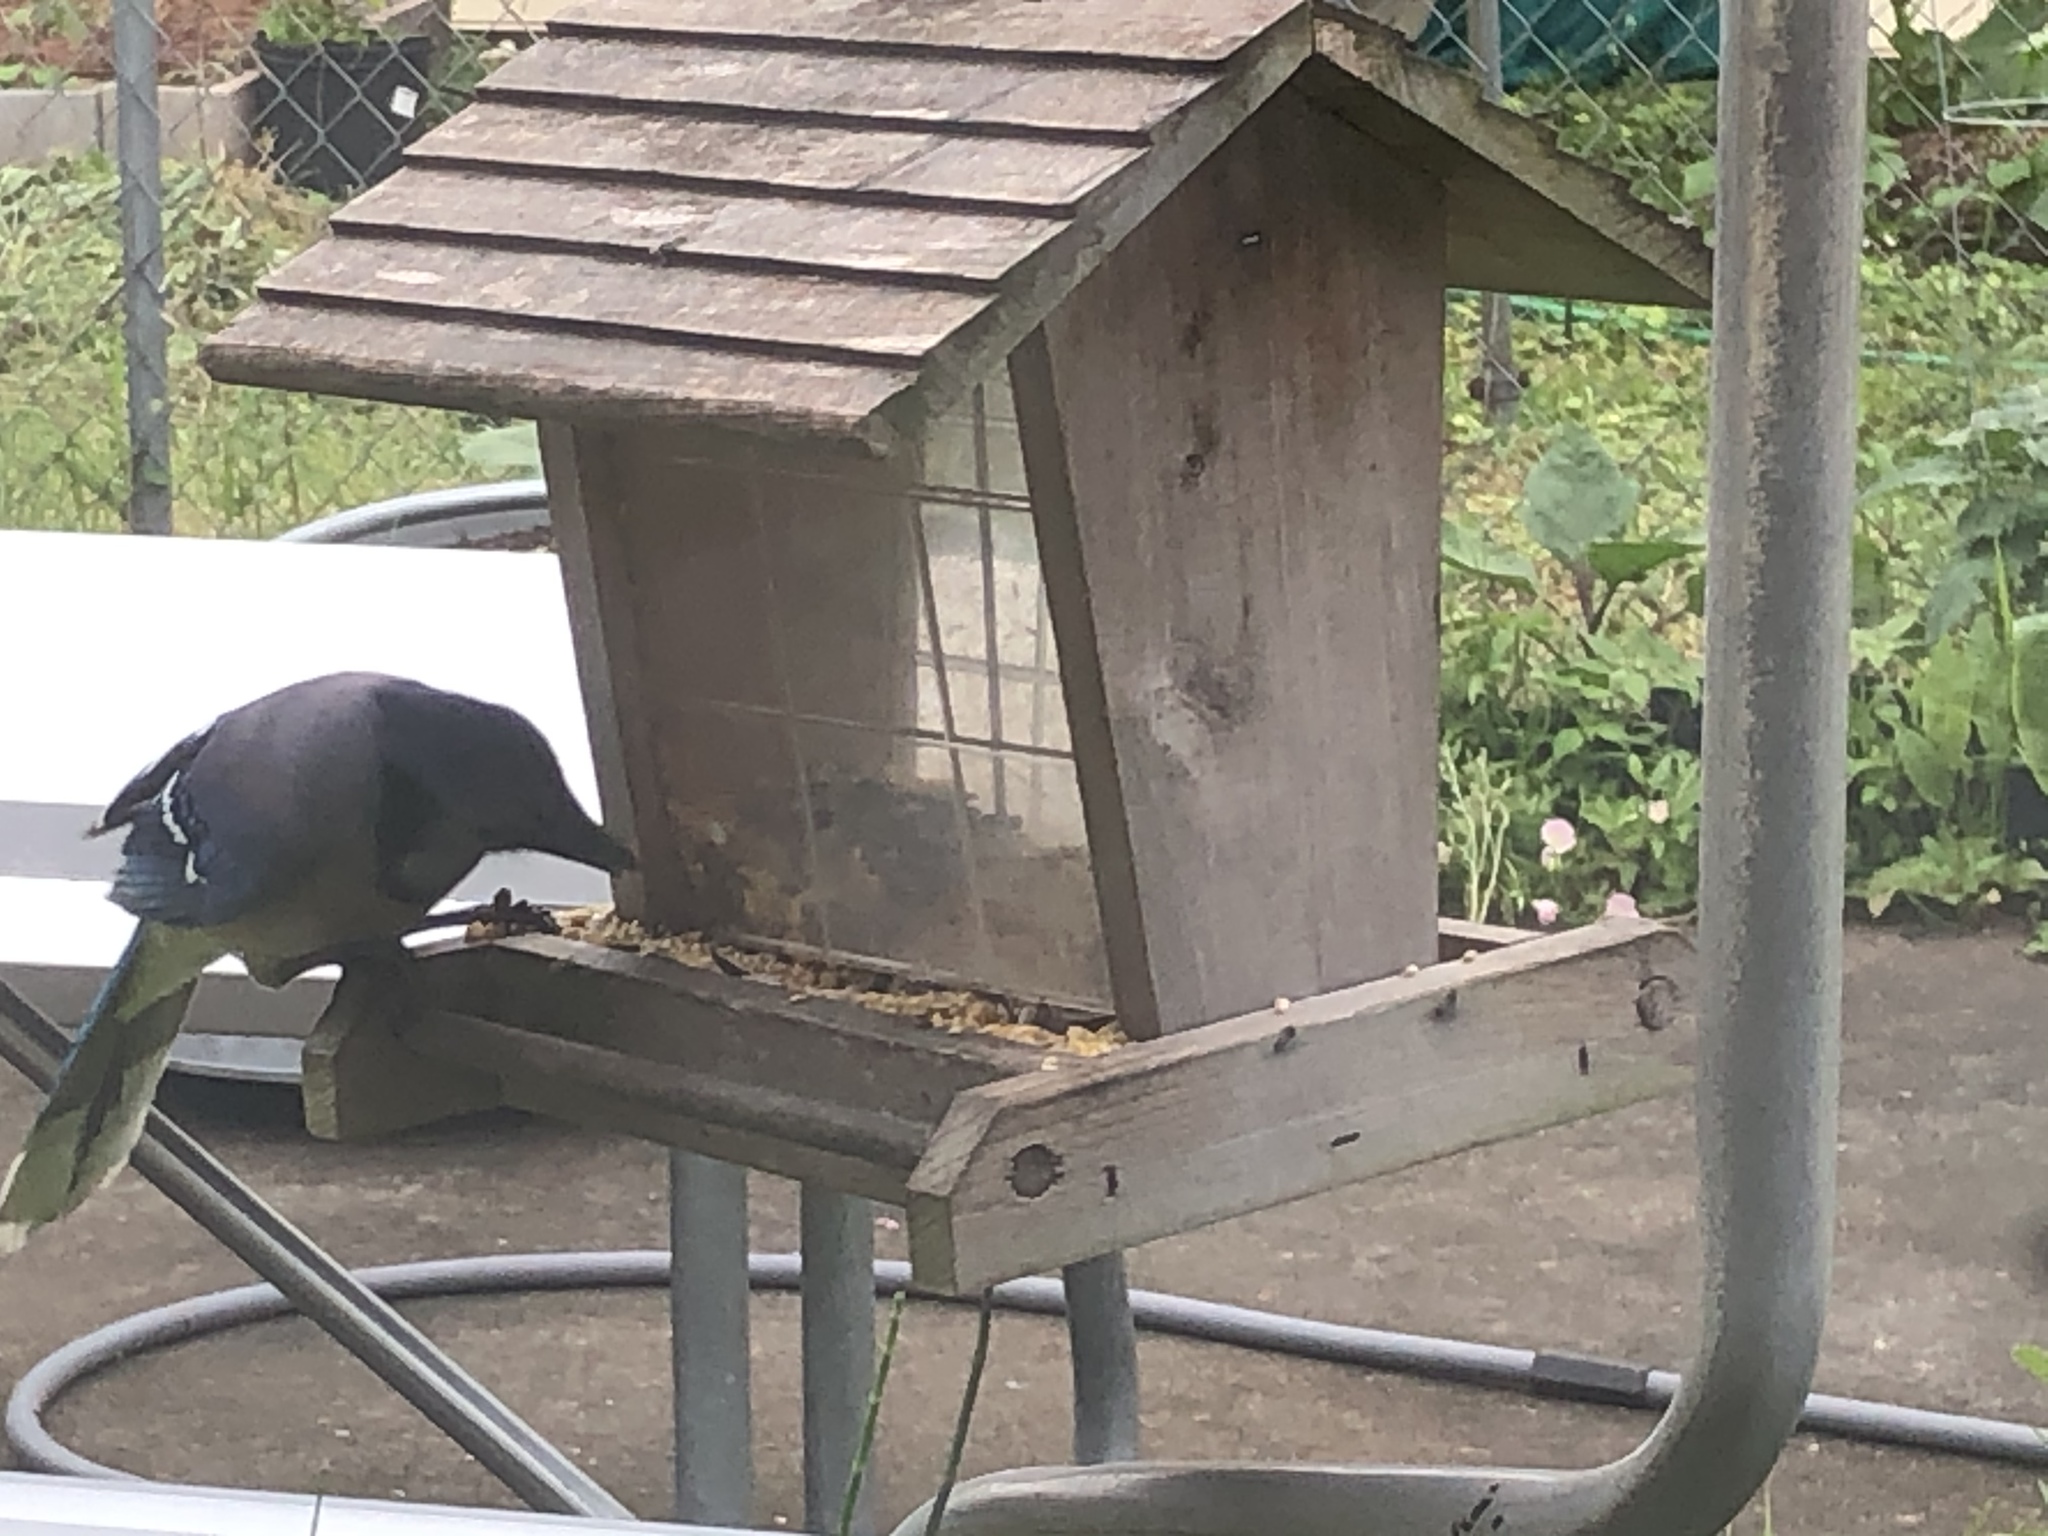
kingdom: Animalia
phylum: Chordata
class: Aves
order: Passeriformes
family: Corvidae
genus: Cyanocitta
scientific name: Cyanocitta cristata
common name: Blue jay
